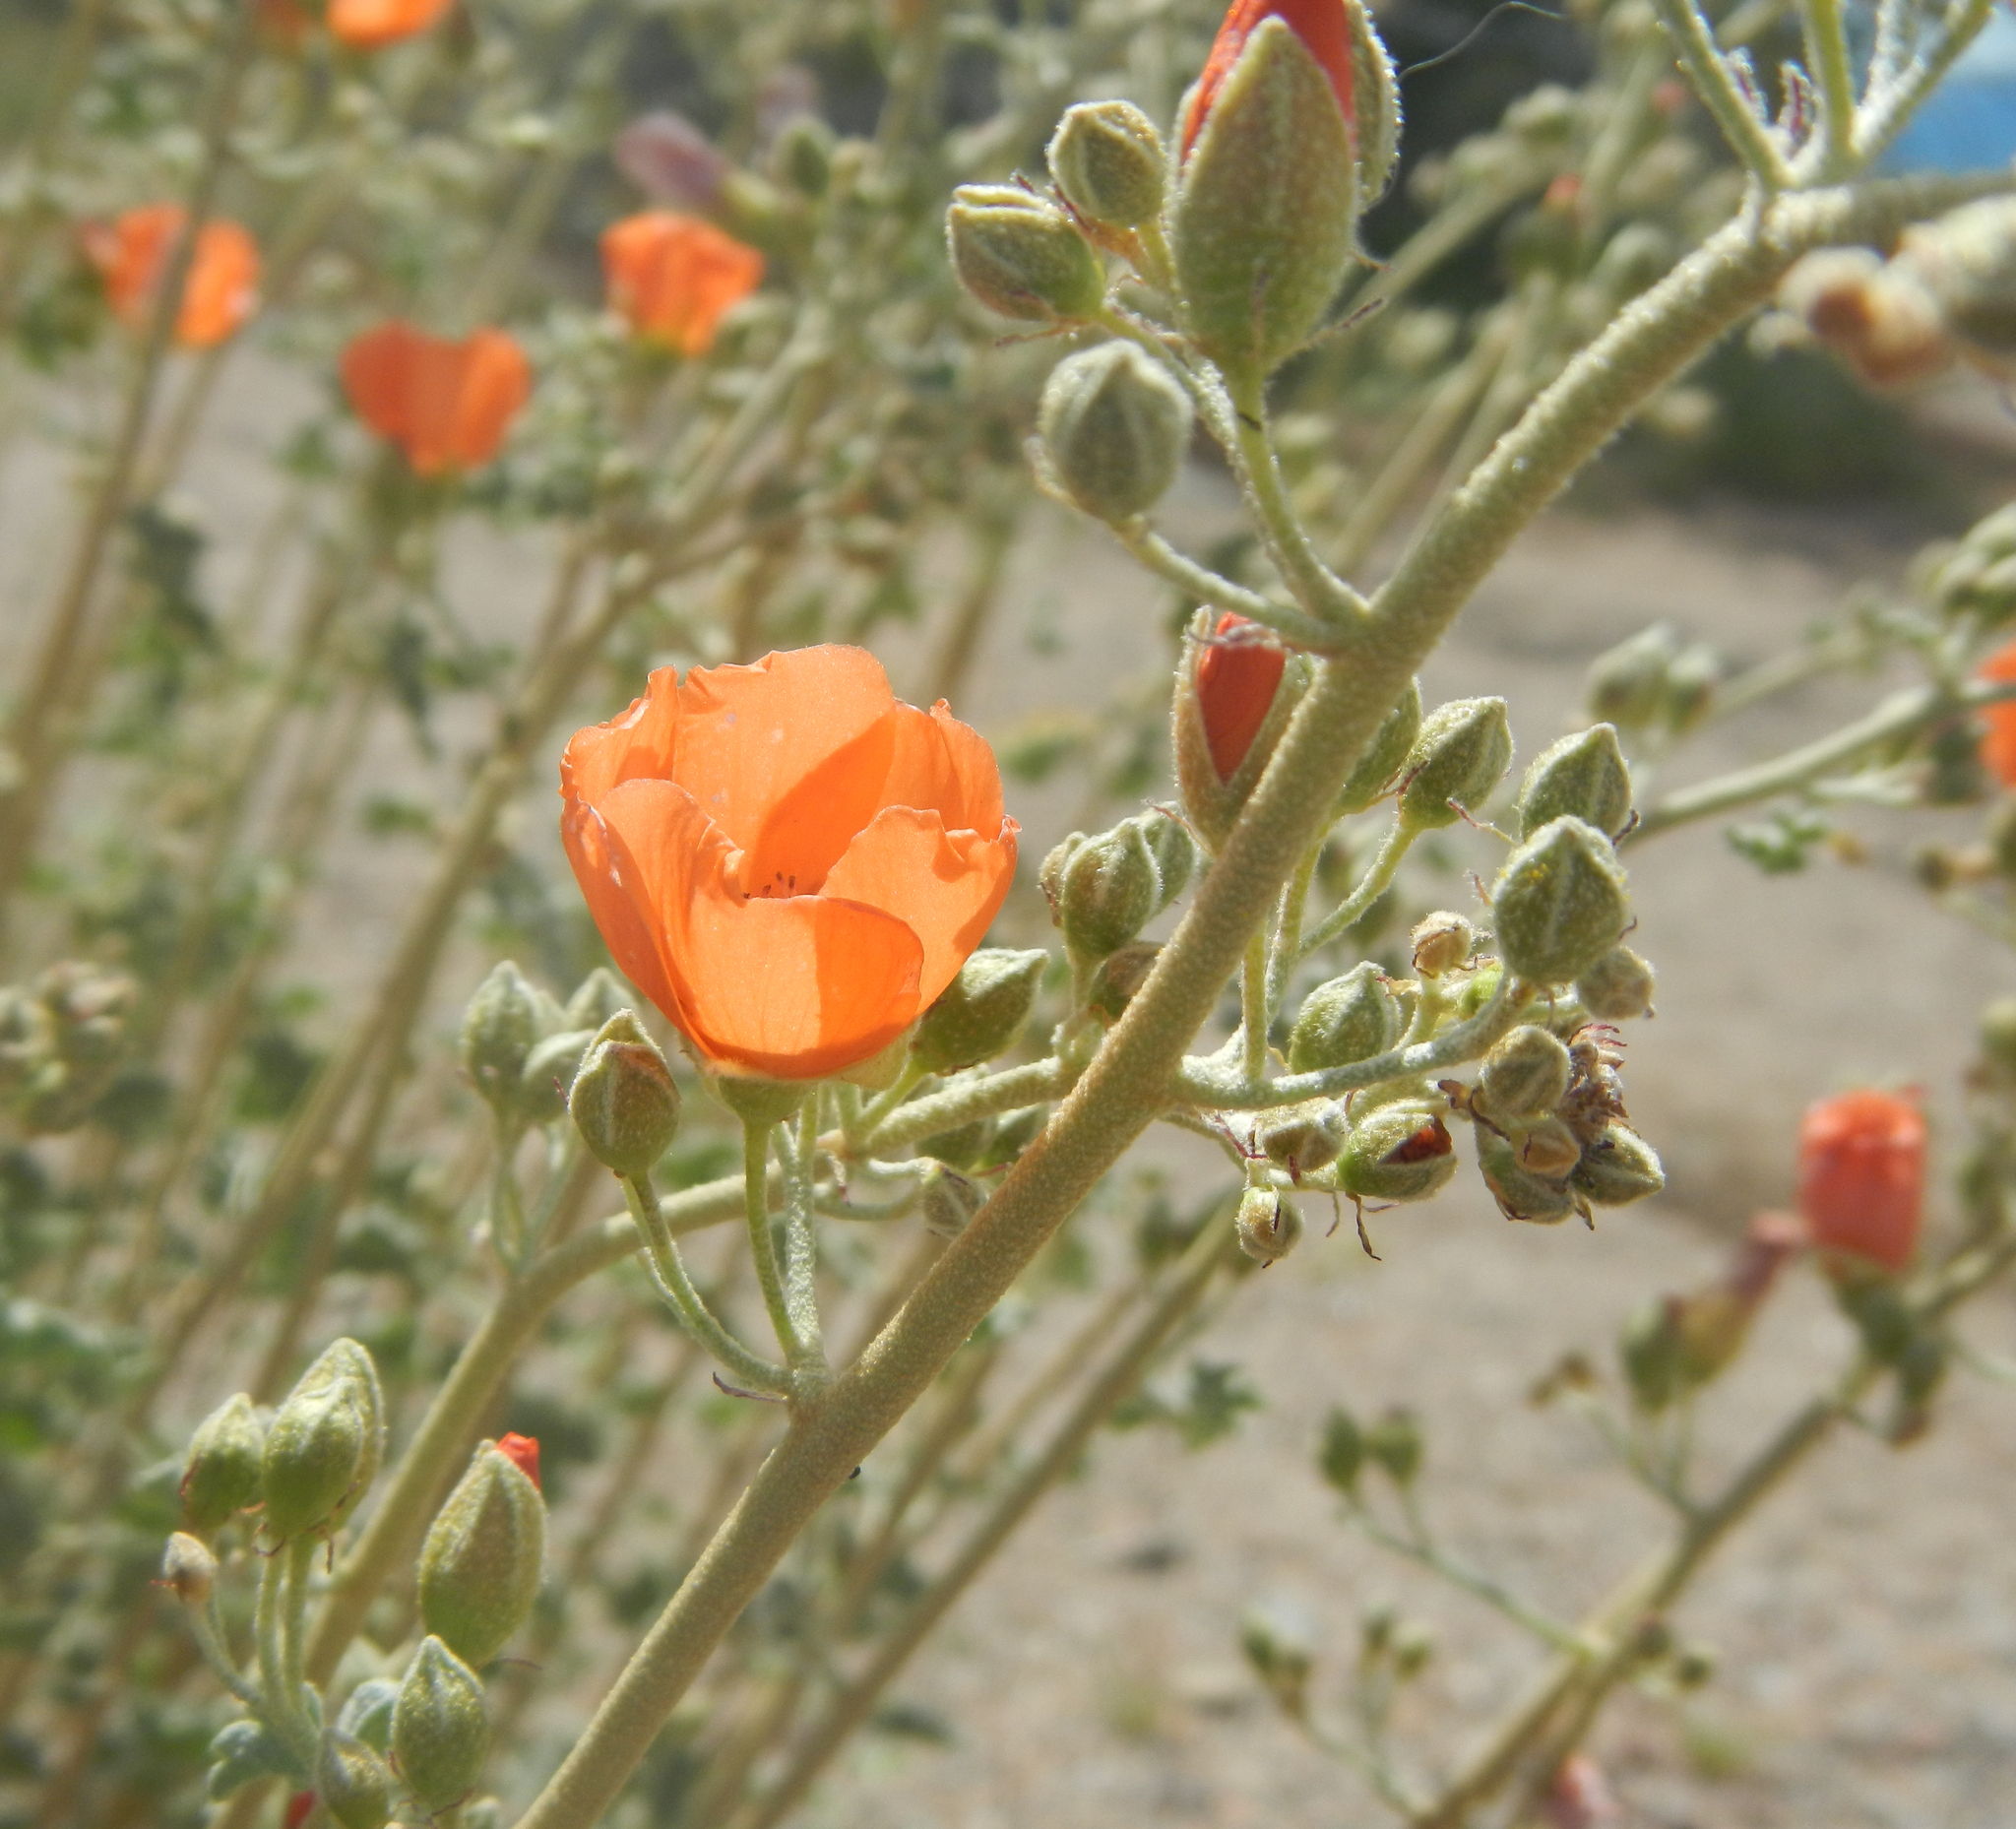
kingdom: Plantae
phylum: Tracheophyta
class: Magnoliopsida
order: Malvales
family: Malvaceae
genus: Sphaeralcea
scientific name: Sphaeralcea ambigua
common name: Apricot globe-mallow
